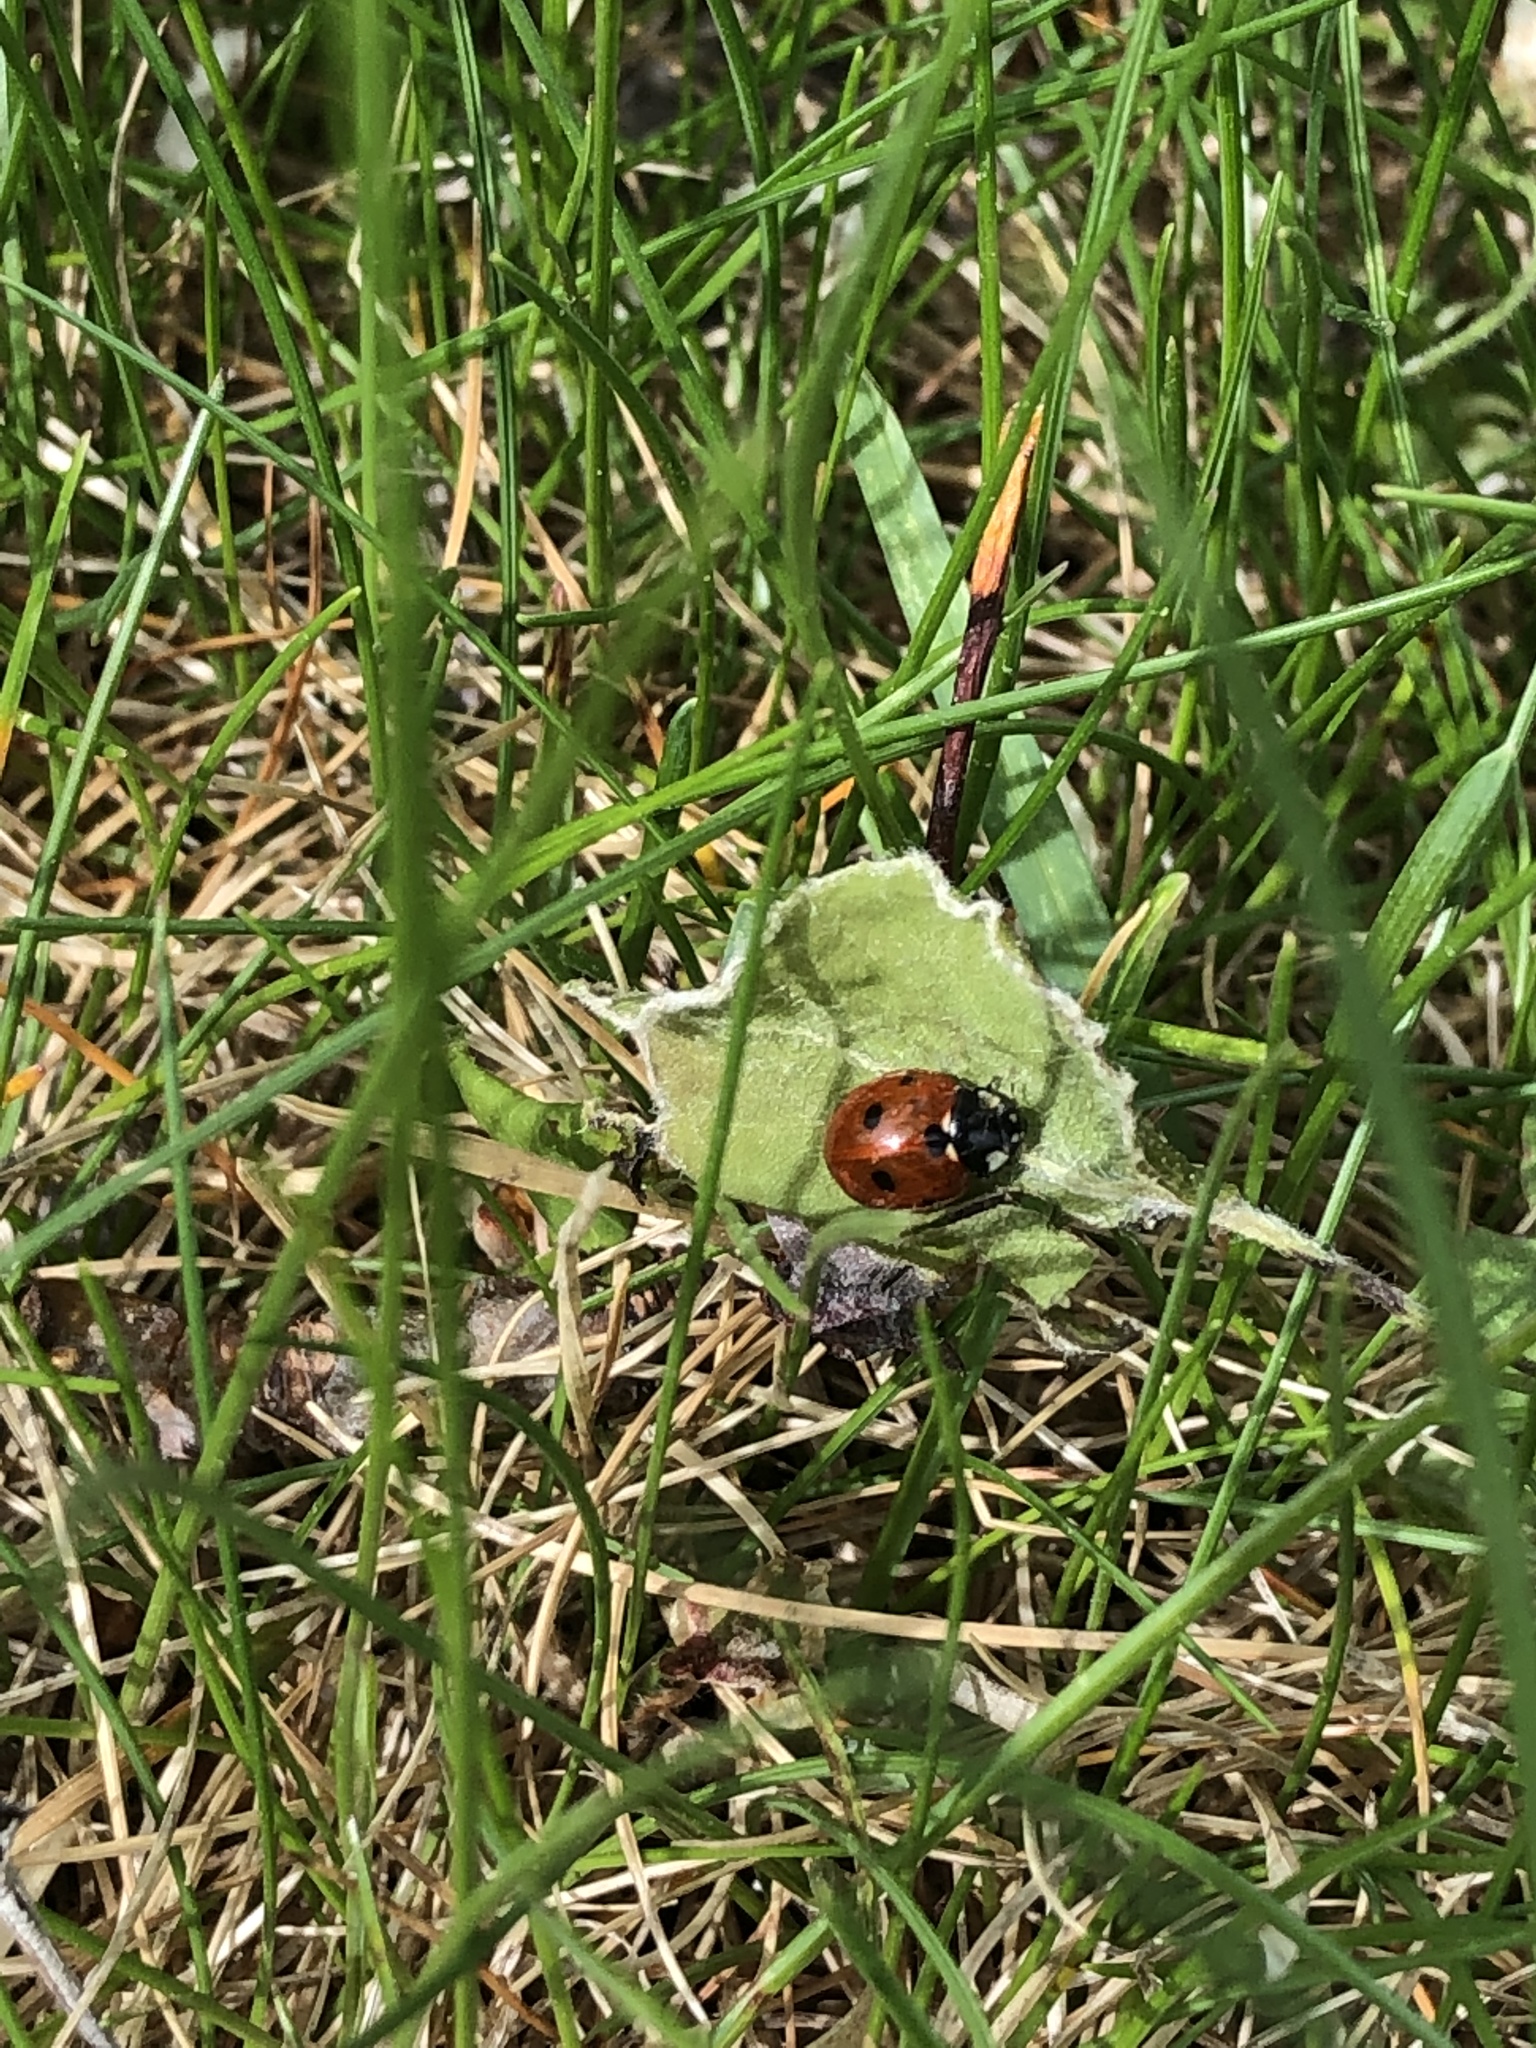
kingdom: Animalia
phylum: Arthropoda
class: Insecta
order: Coleoptera
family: Coccinellidae
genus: Coccinella
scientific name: Coccinella septempunctata
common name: Sevenspotted lady beetle
